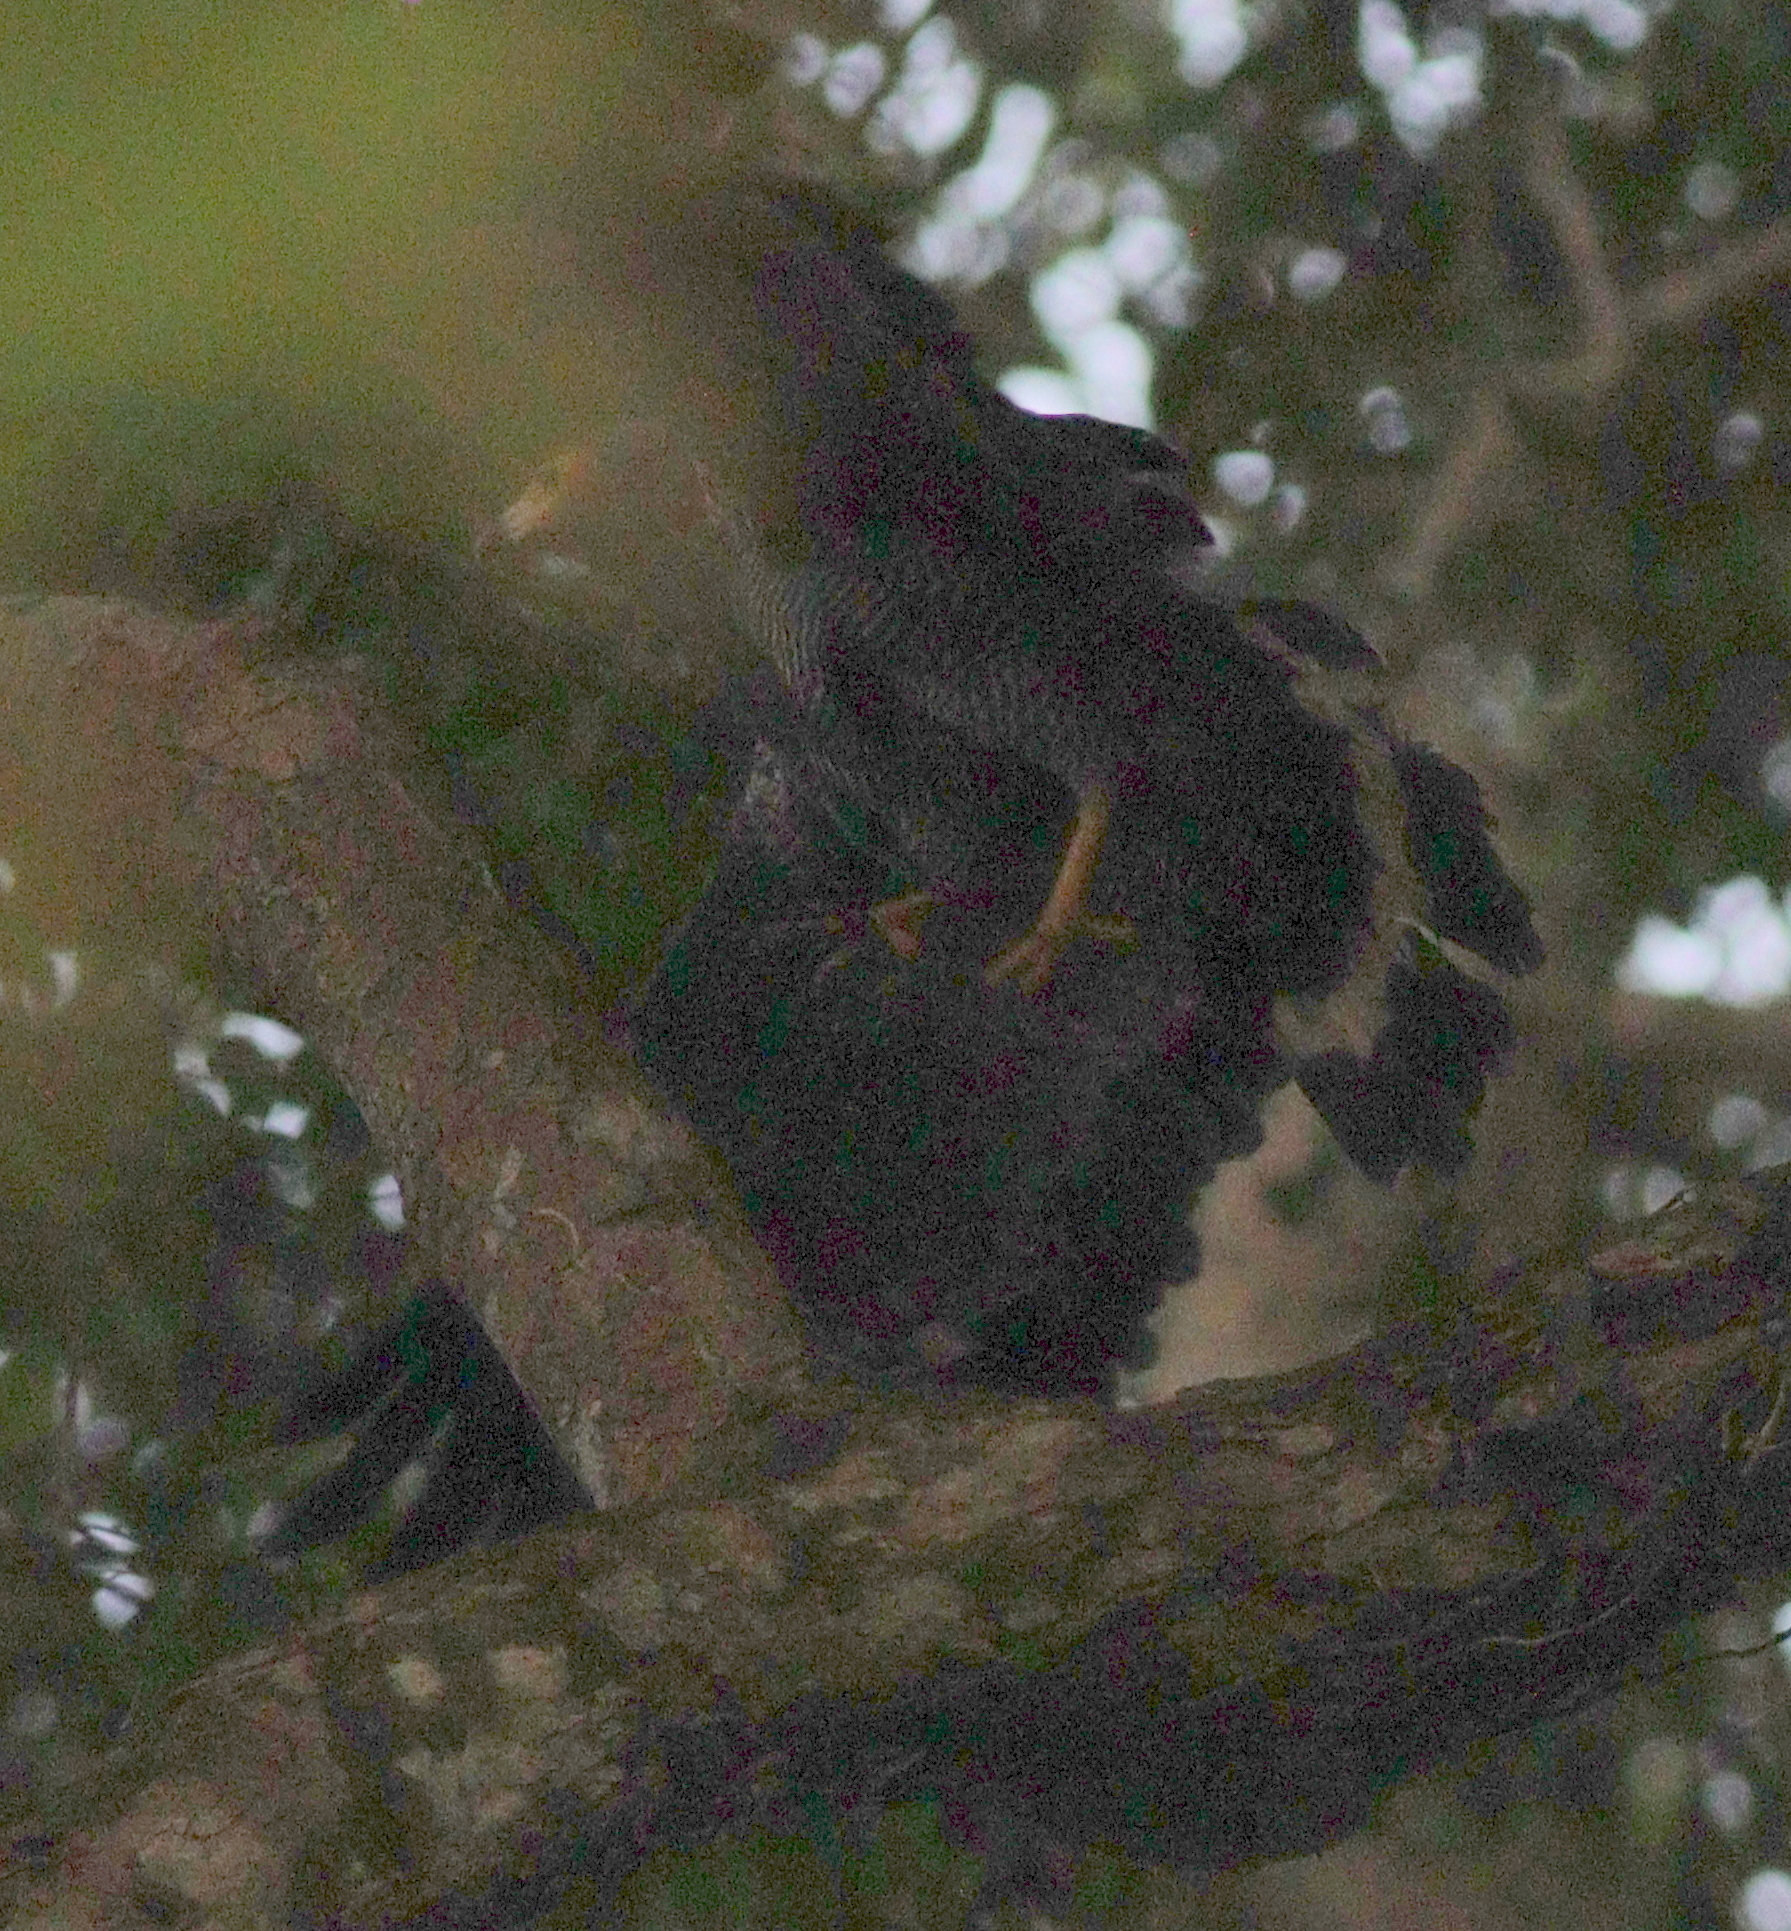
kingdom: Animalia
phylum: Chordata
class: Aves
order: Accipitriformes
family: Accipitridae
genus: Polyboroides
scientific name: Polyboroides typus
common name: African harrier-hawk
